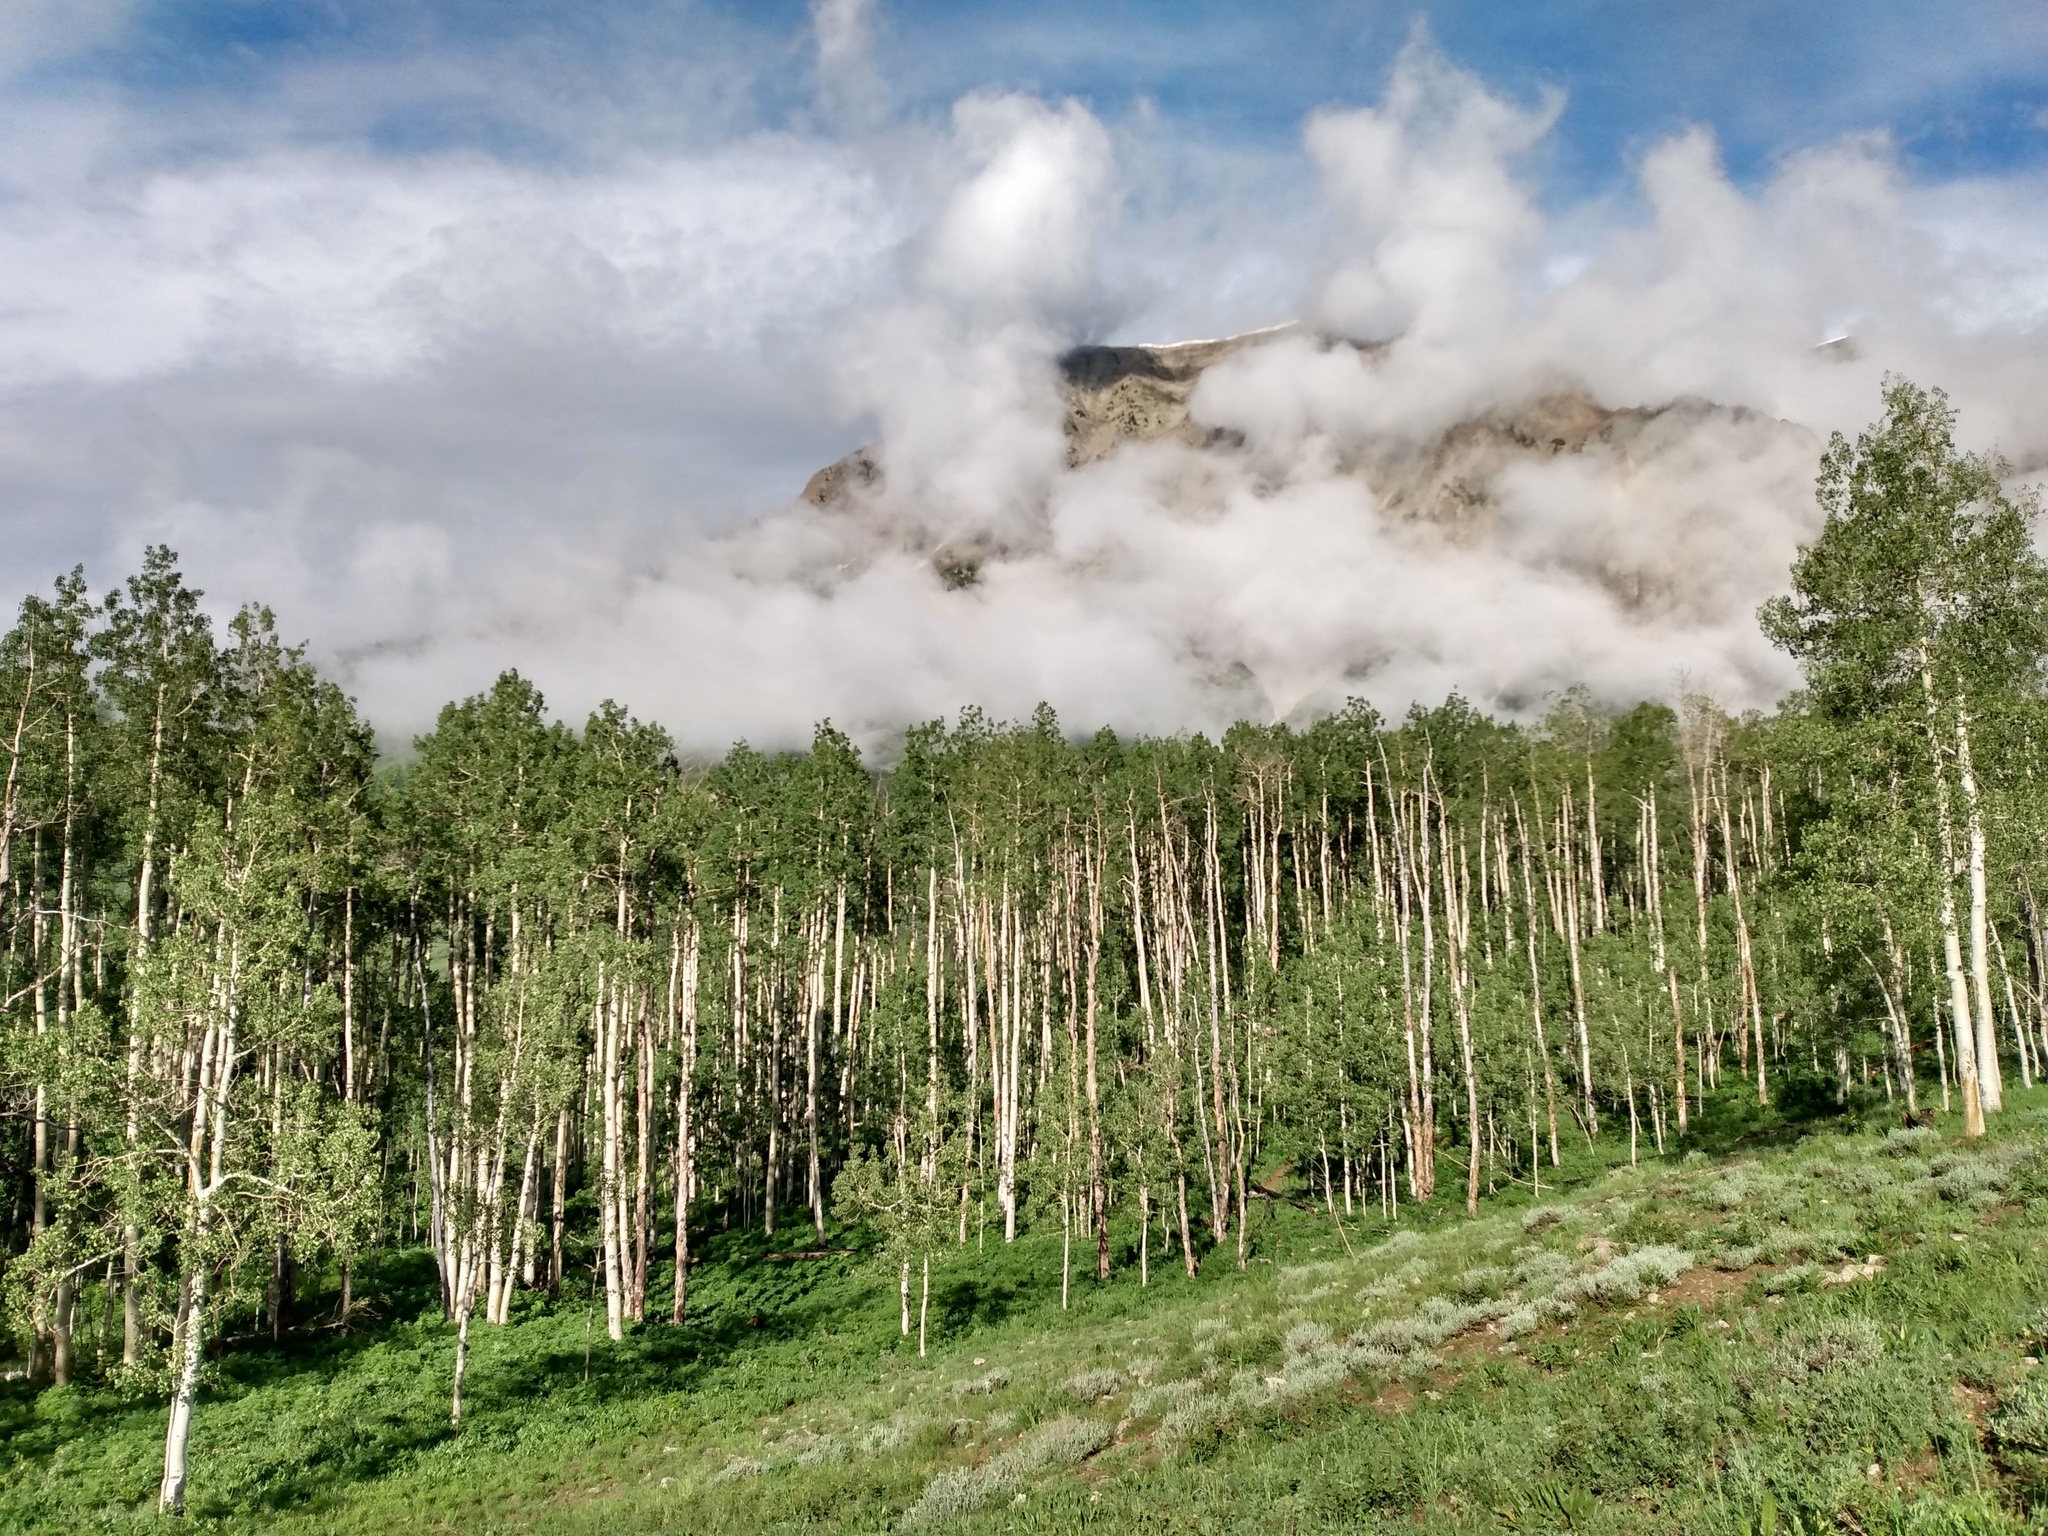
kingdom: Plantae
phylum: Tracheophyta
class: Magnoliopsida
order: Malpighiales
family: Salicaceae
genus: Populus
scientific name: Populus tremuloides
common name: Quaking aspen
